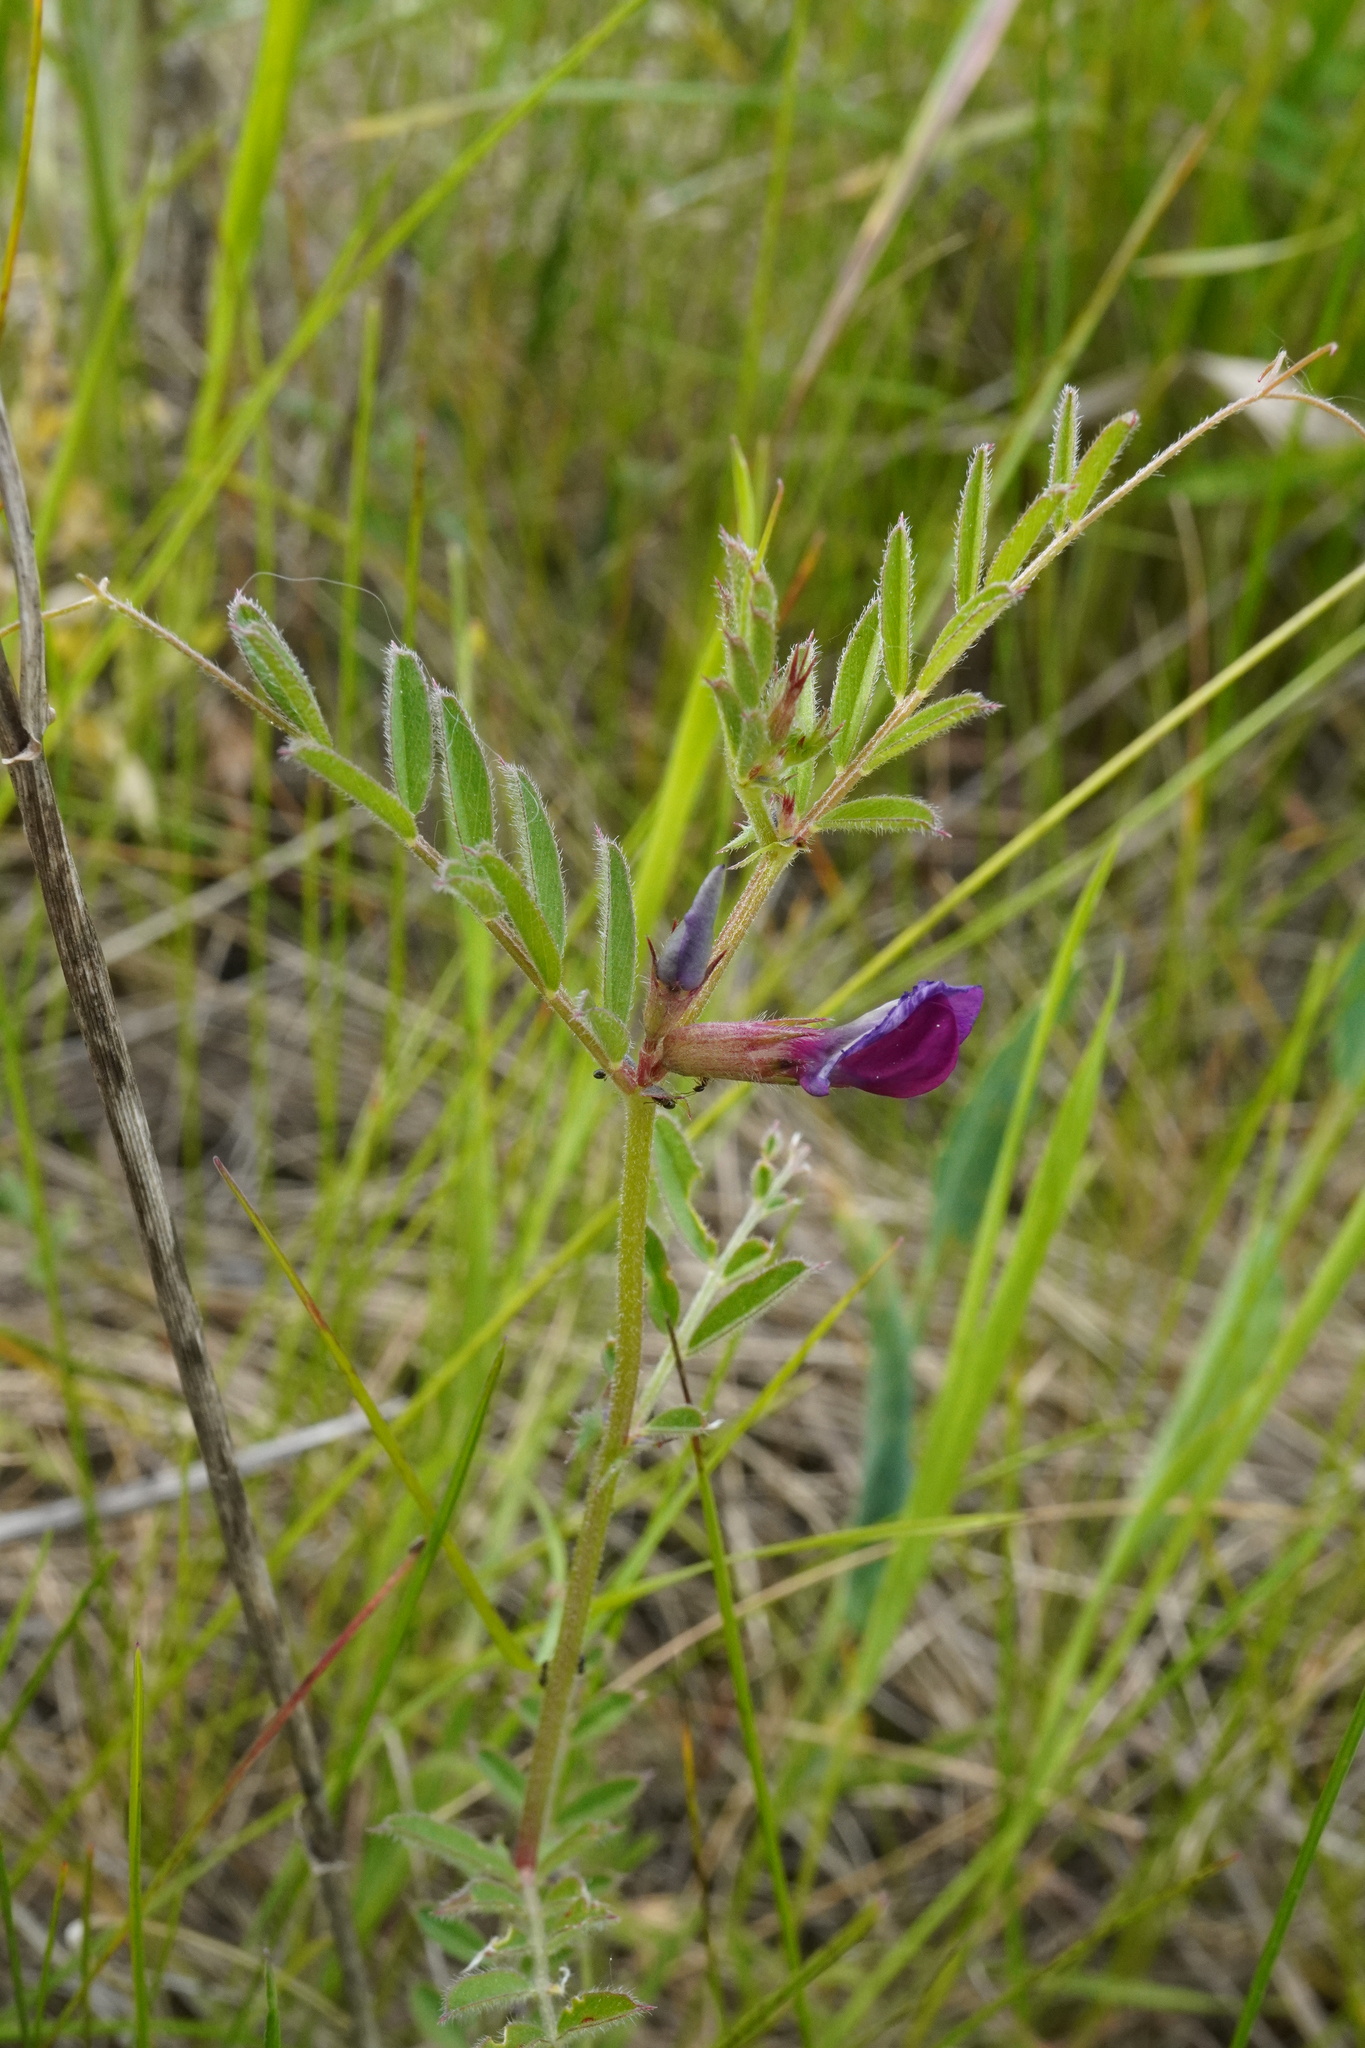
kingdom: Plantae
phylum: Tracheophyta
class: Magnoliopsida
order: Fabales
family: Fabaceae
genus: Vicia
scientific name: Vicia sativa
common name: Garden vetch
